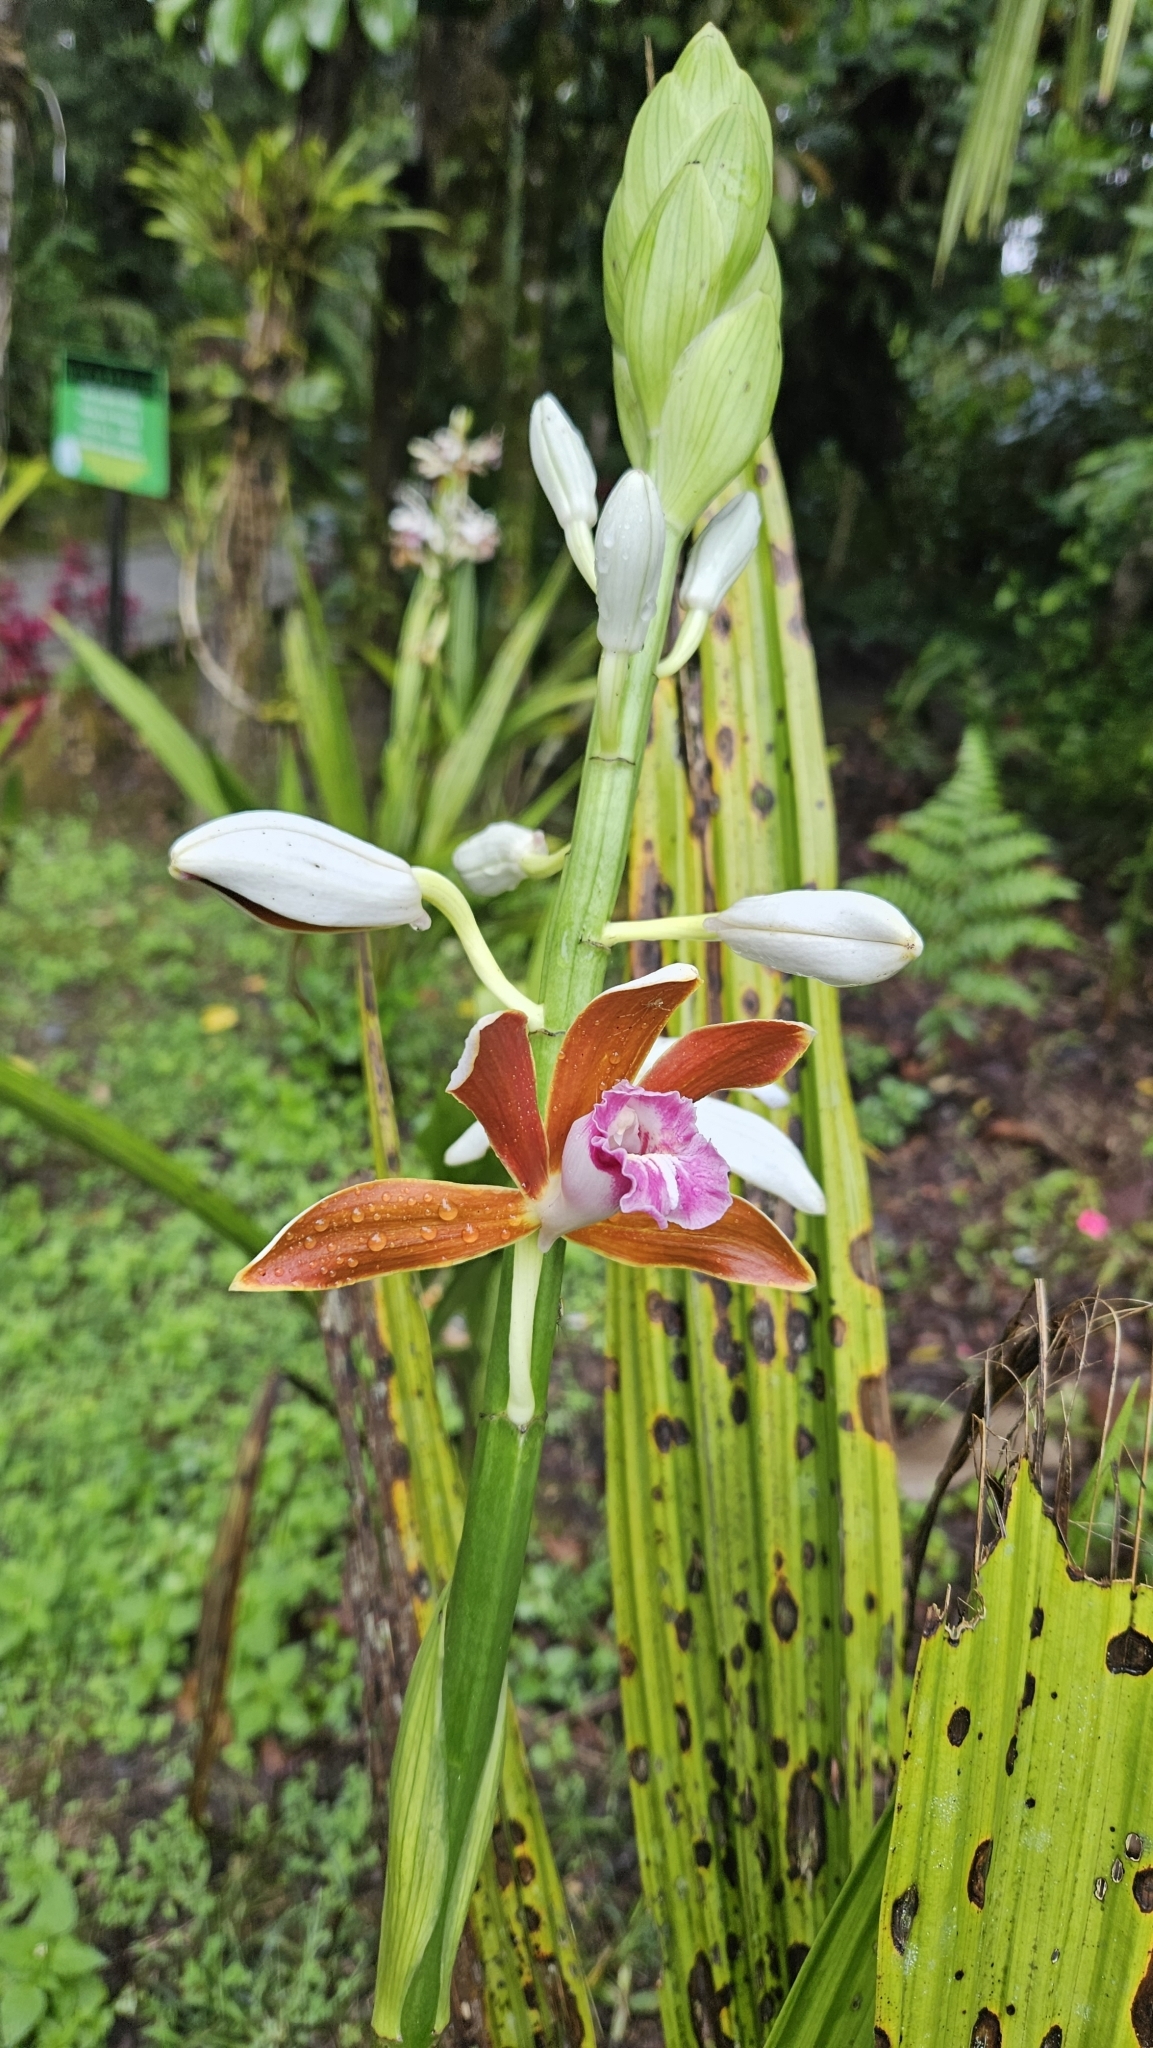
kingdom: Plantae
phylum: Tracheophyta
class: Liliopsida
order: Asparagales
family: Orchidaceae
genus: Calanthe
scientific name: Calanthe tankervilleae
